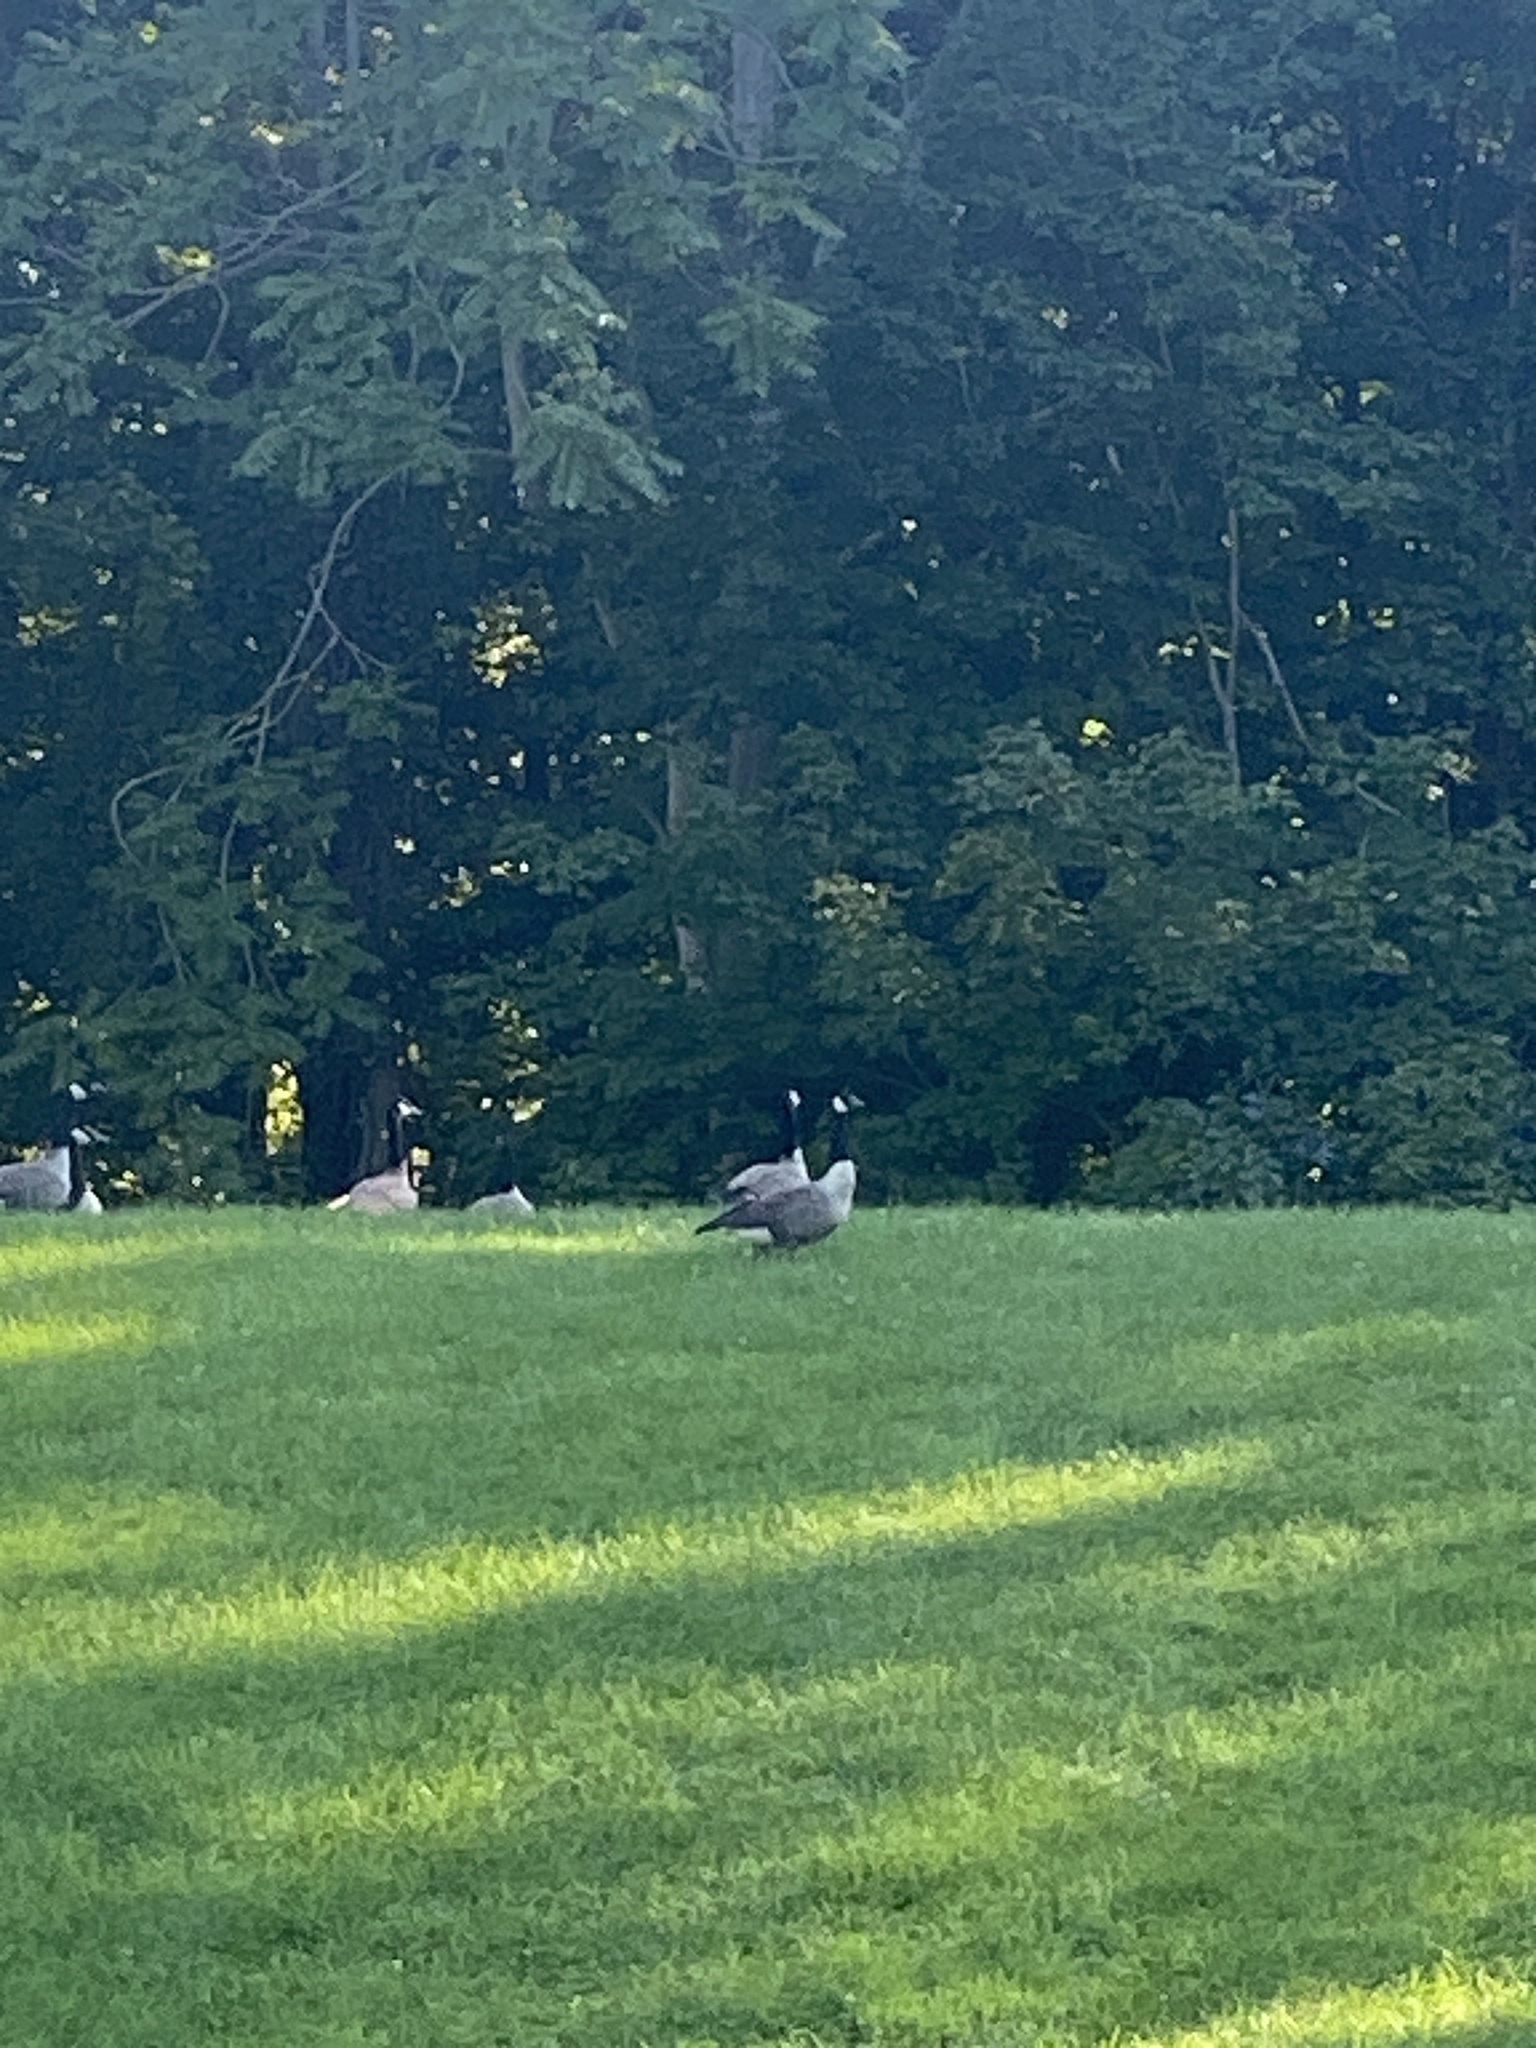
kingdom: Animalia
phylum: Chordata
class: Aves
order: Anseriformes
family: Anatidae
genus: Branta
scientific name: Branta canadensis
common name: Canada goose
